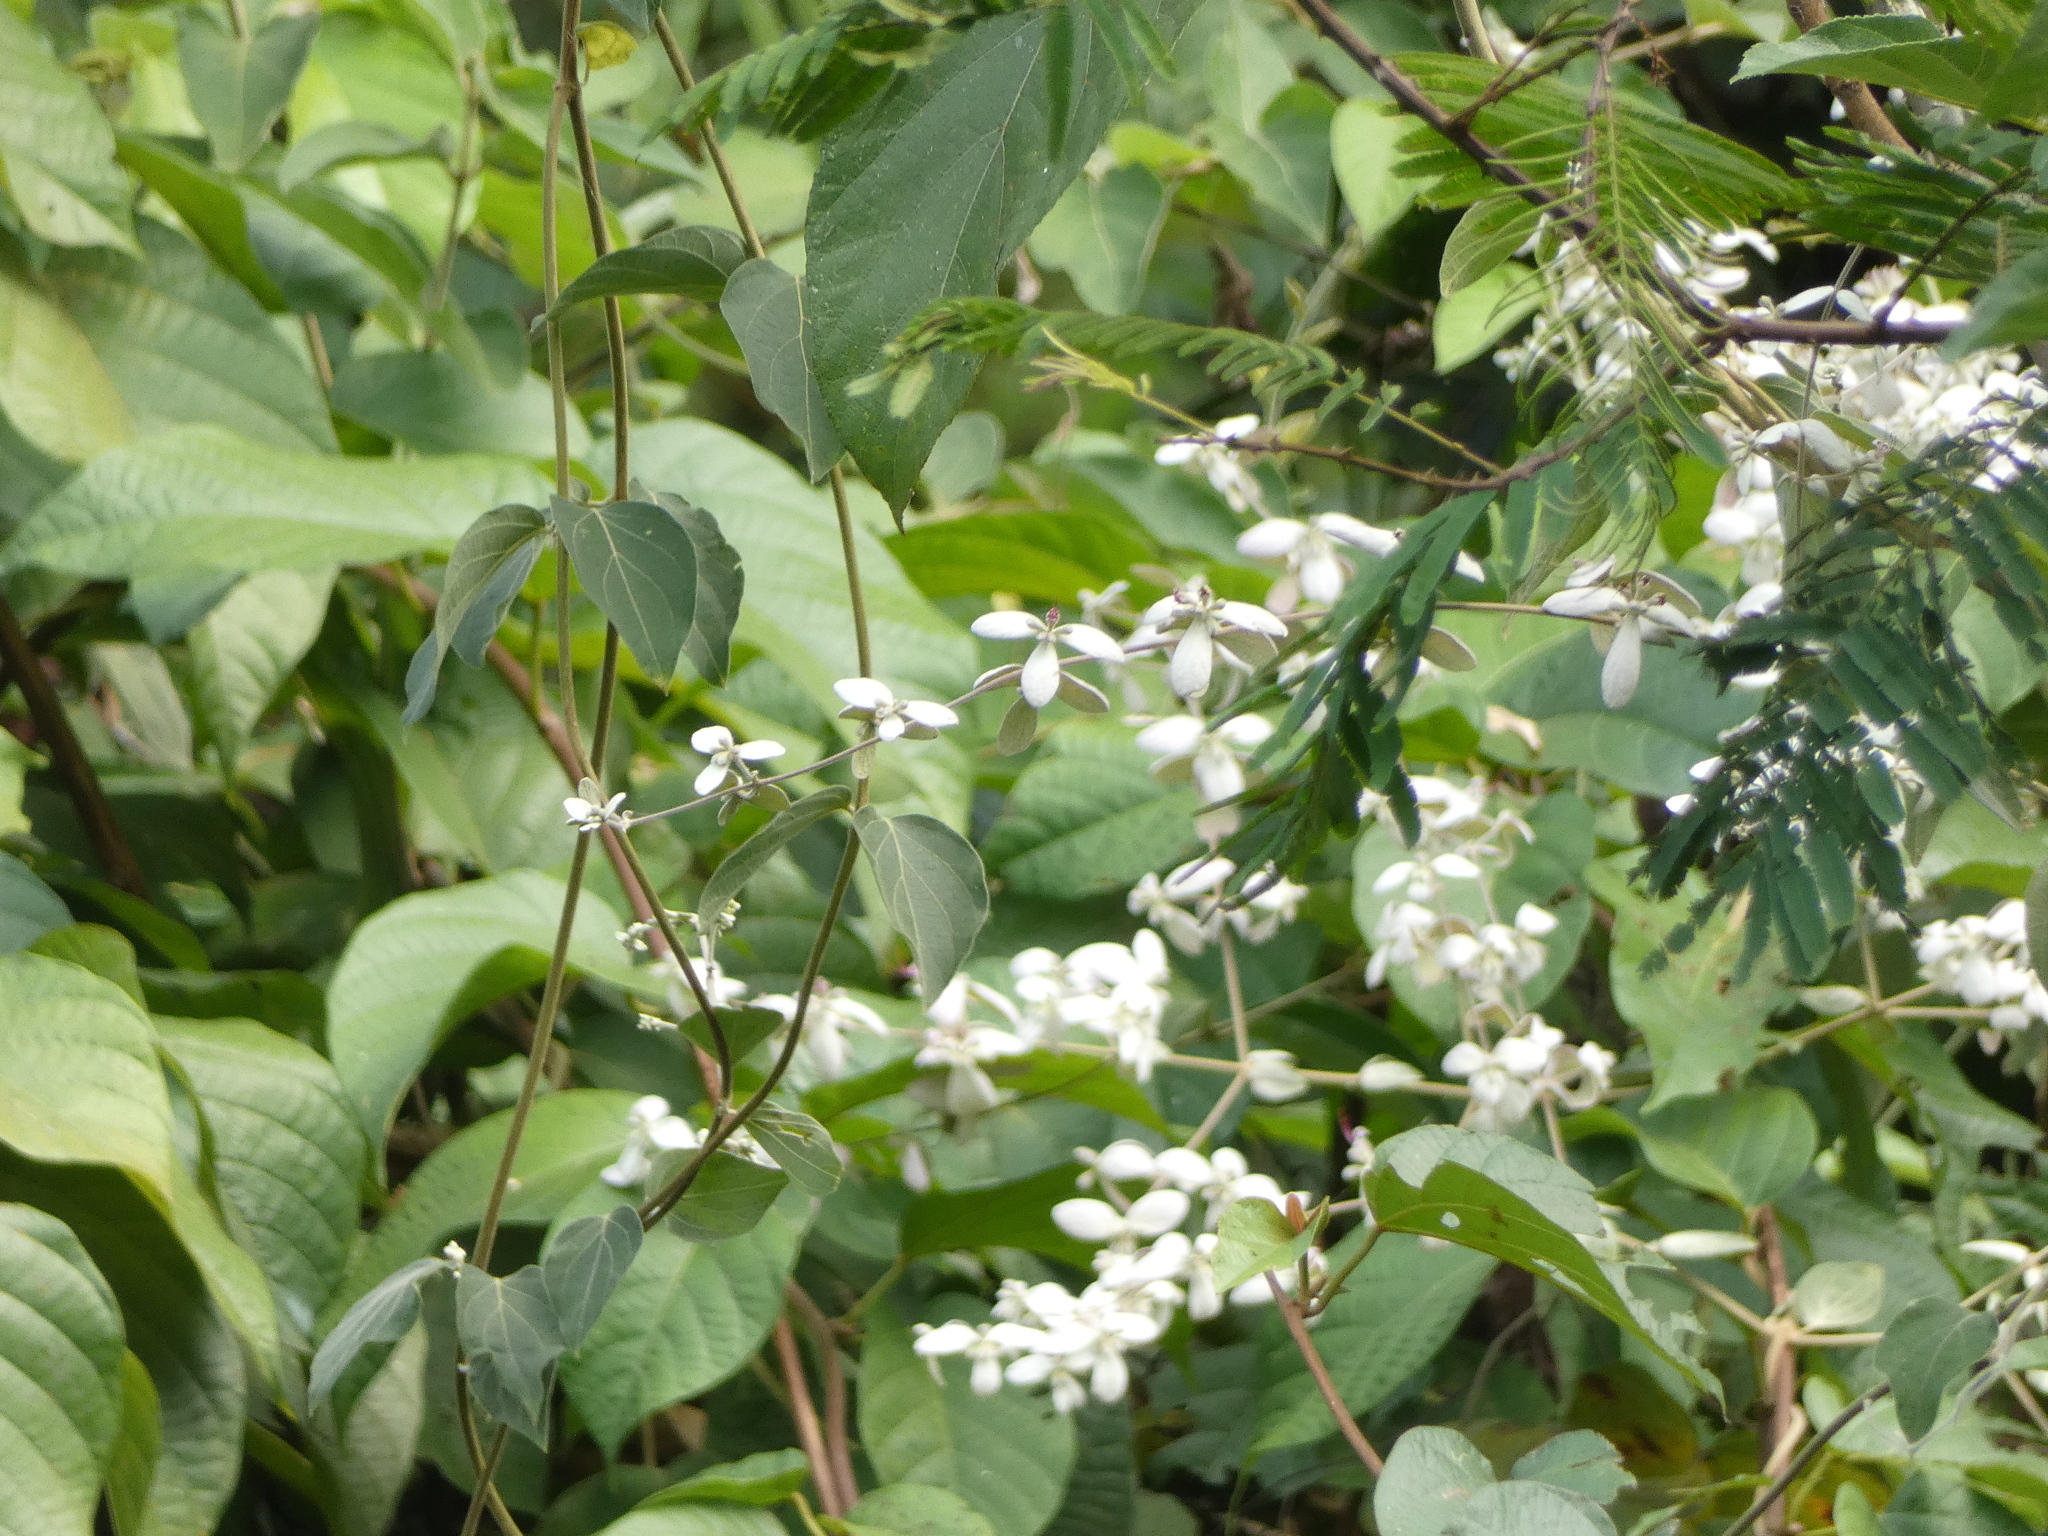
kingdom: Plantae
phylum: Tracheophyta
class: Magnoliopsida
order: Lamiales
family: Lamiaceae
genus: Congea
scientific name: Congea tomentosa
